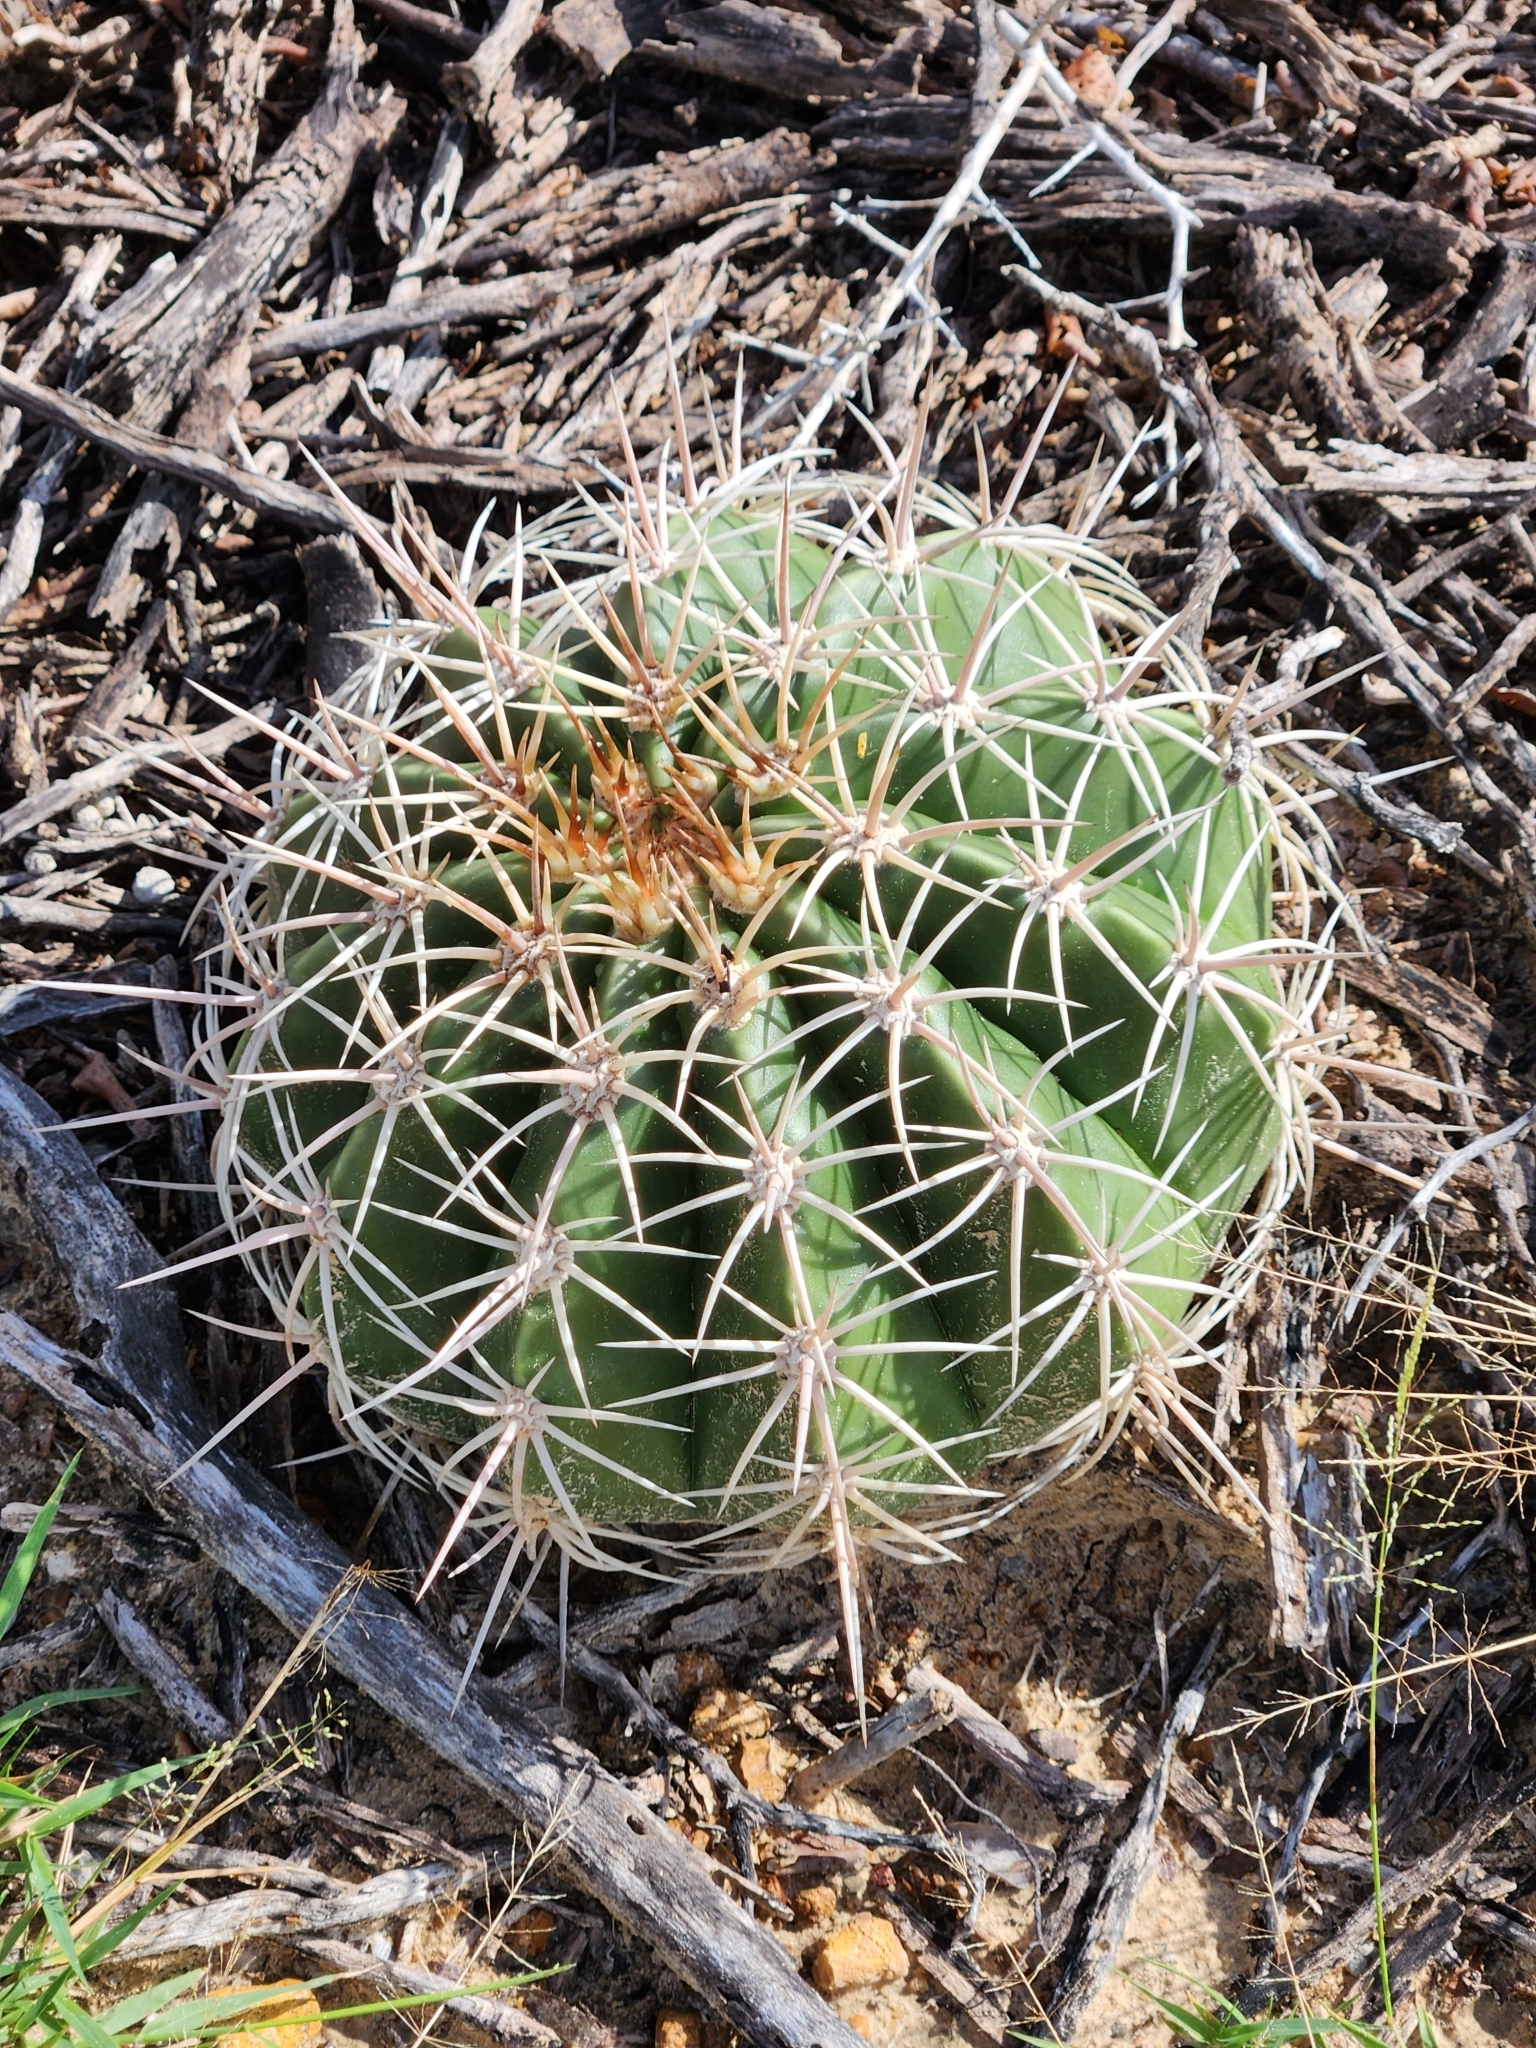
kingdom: Plantae
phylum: Tracheophyta
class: Magnoliopsida
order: Caryophyllales
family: Cactaceae
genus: Melocactus
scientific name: Melocactus curvispinus
